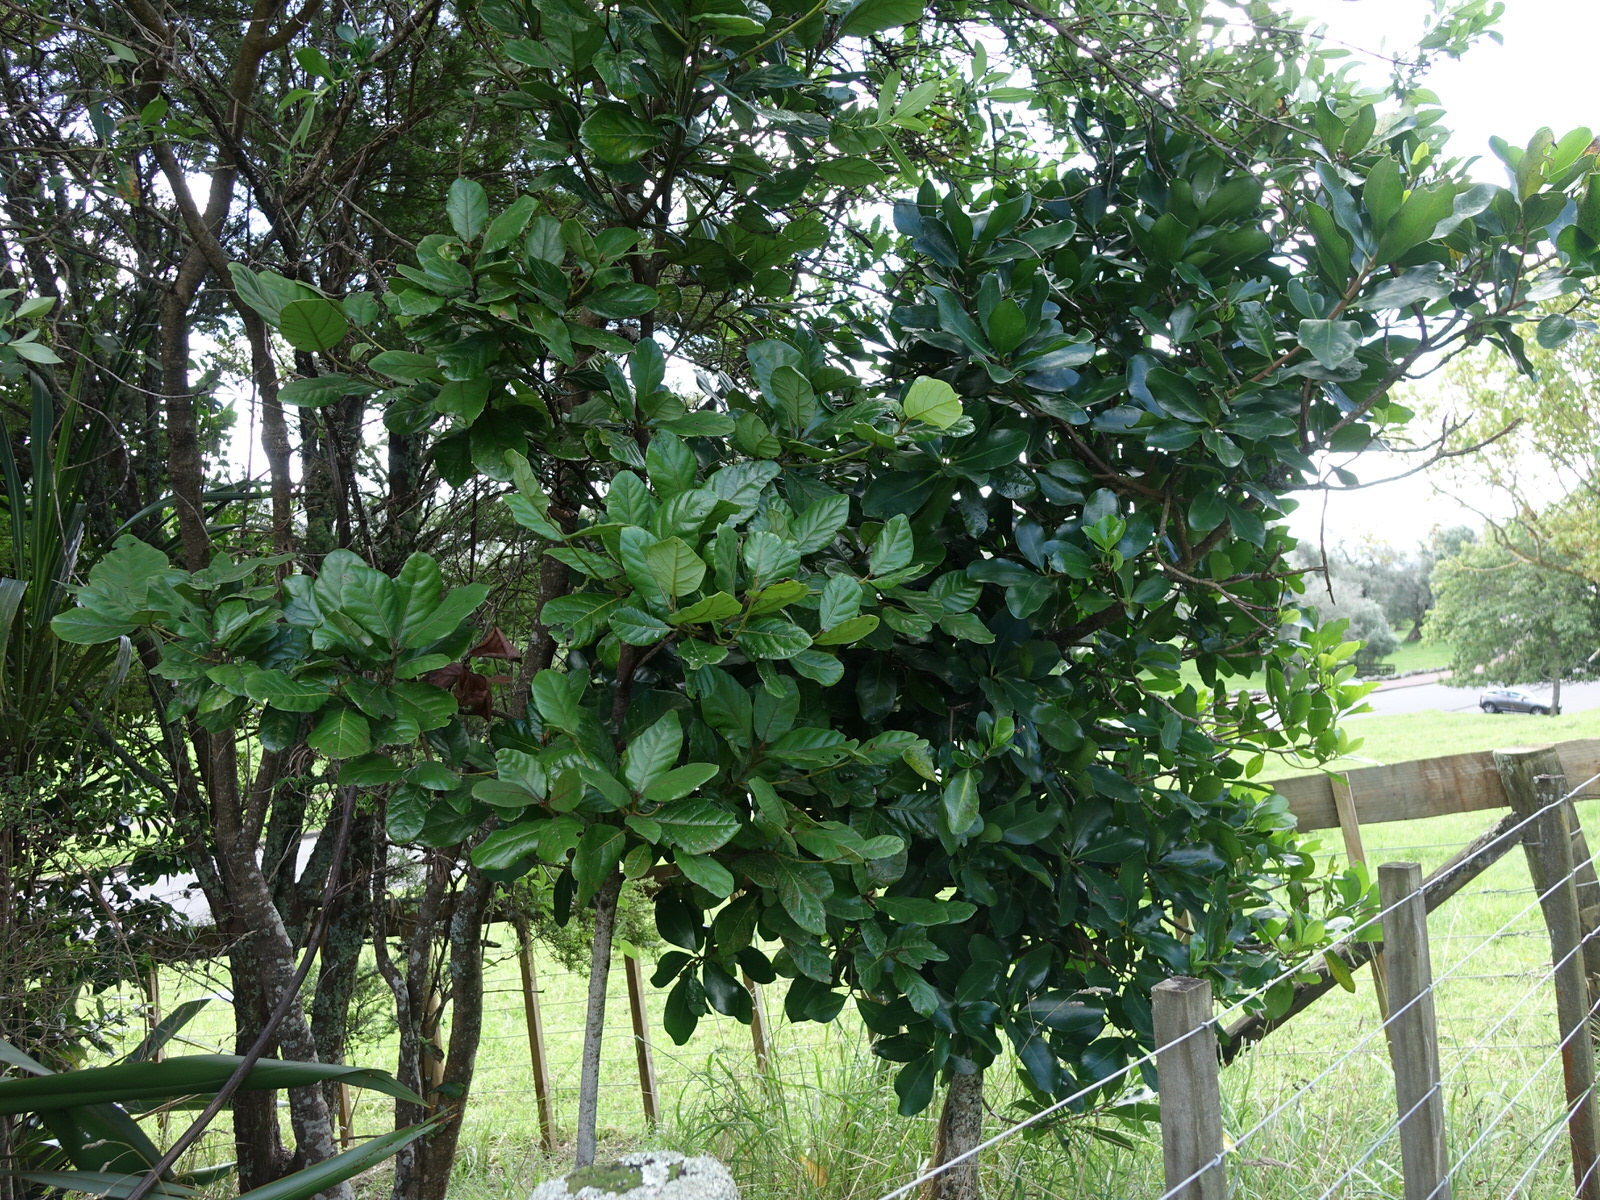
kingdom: Fungi
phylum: Ascomycota
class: Dothideomycetes
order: Strigulales
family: Strigulaceae
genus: Phyllocharis
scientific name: Phyllocharis orbicularis
